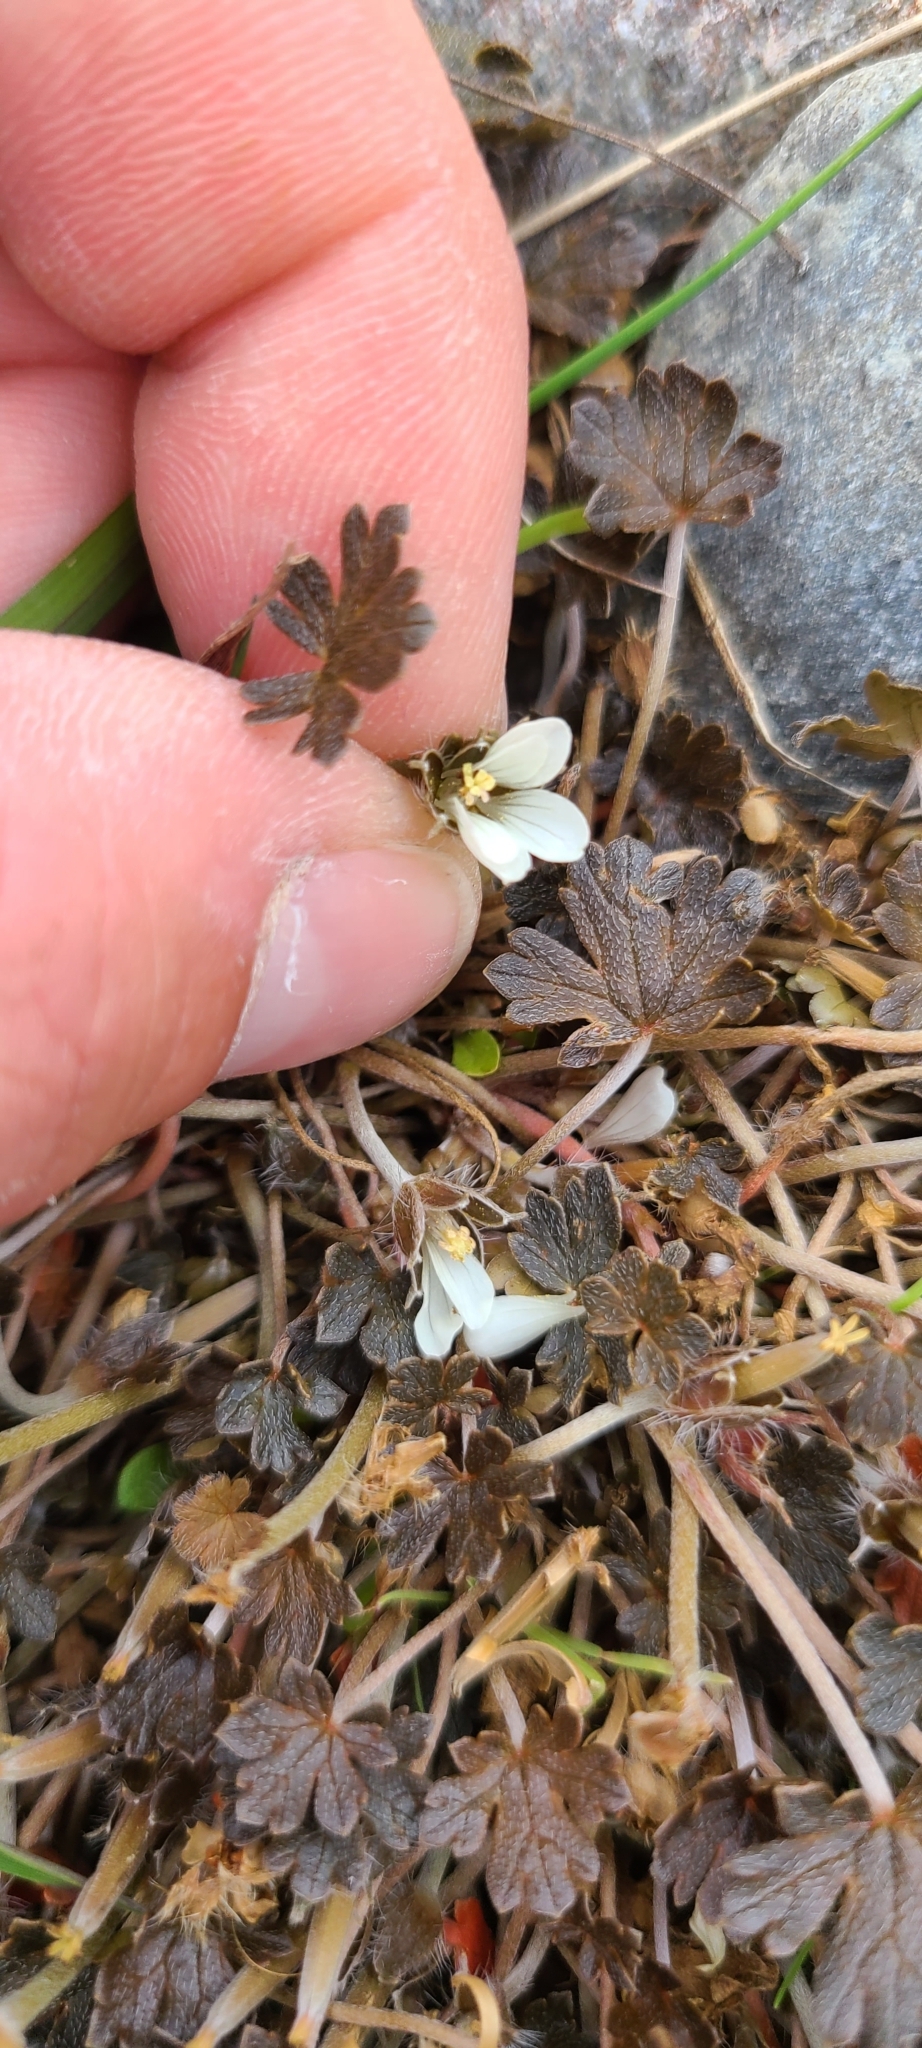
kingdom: Plantae
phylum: Tracheophyta
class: Magnoliopsida
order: Geraniales
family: Geraniaceae
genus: Geranium
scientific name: Geranium brevicaule
